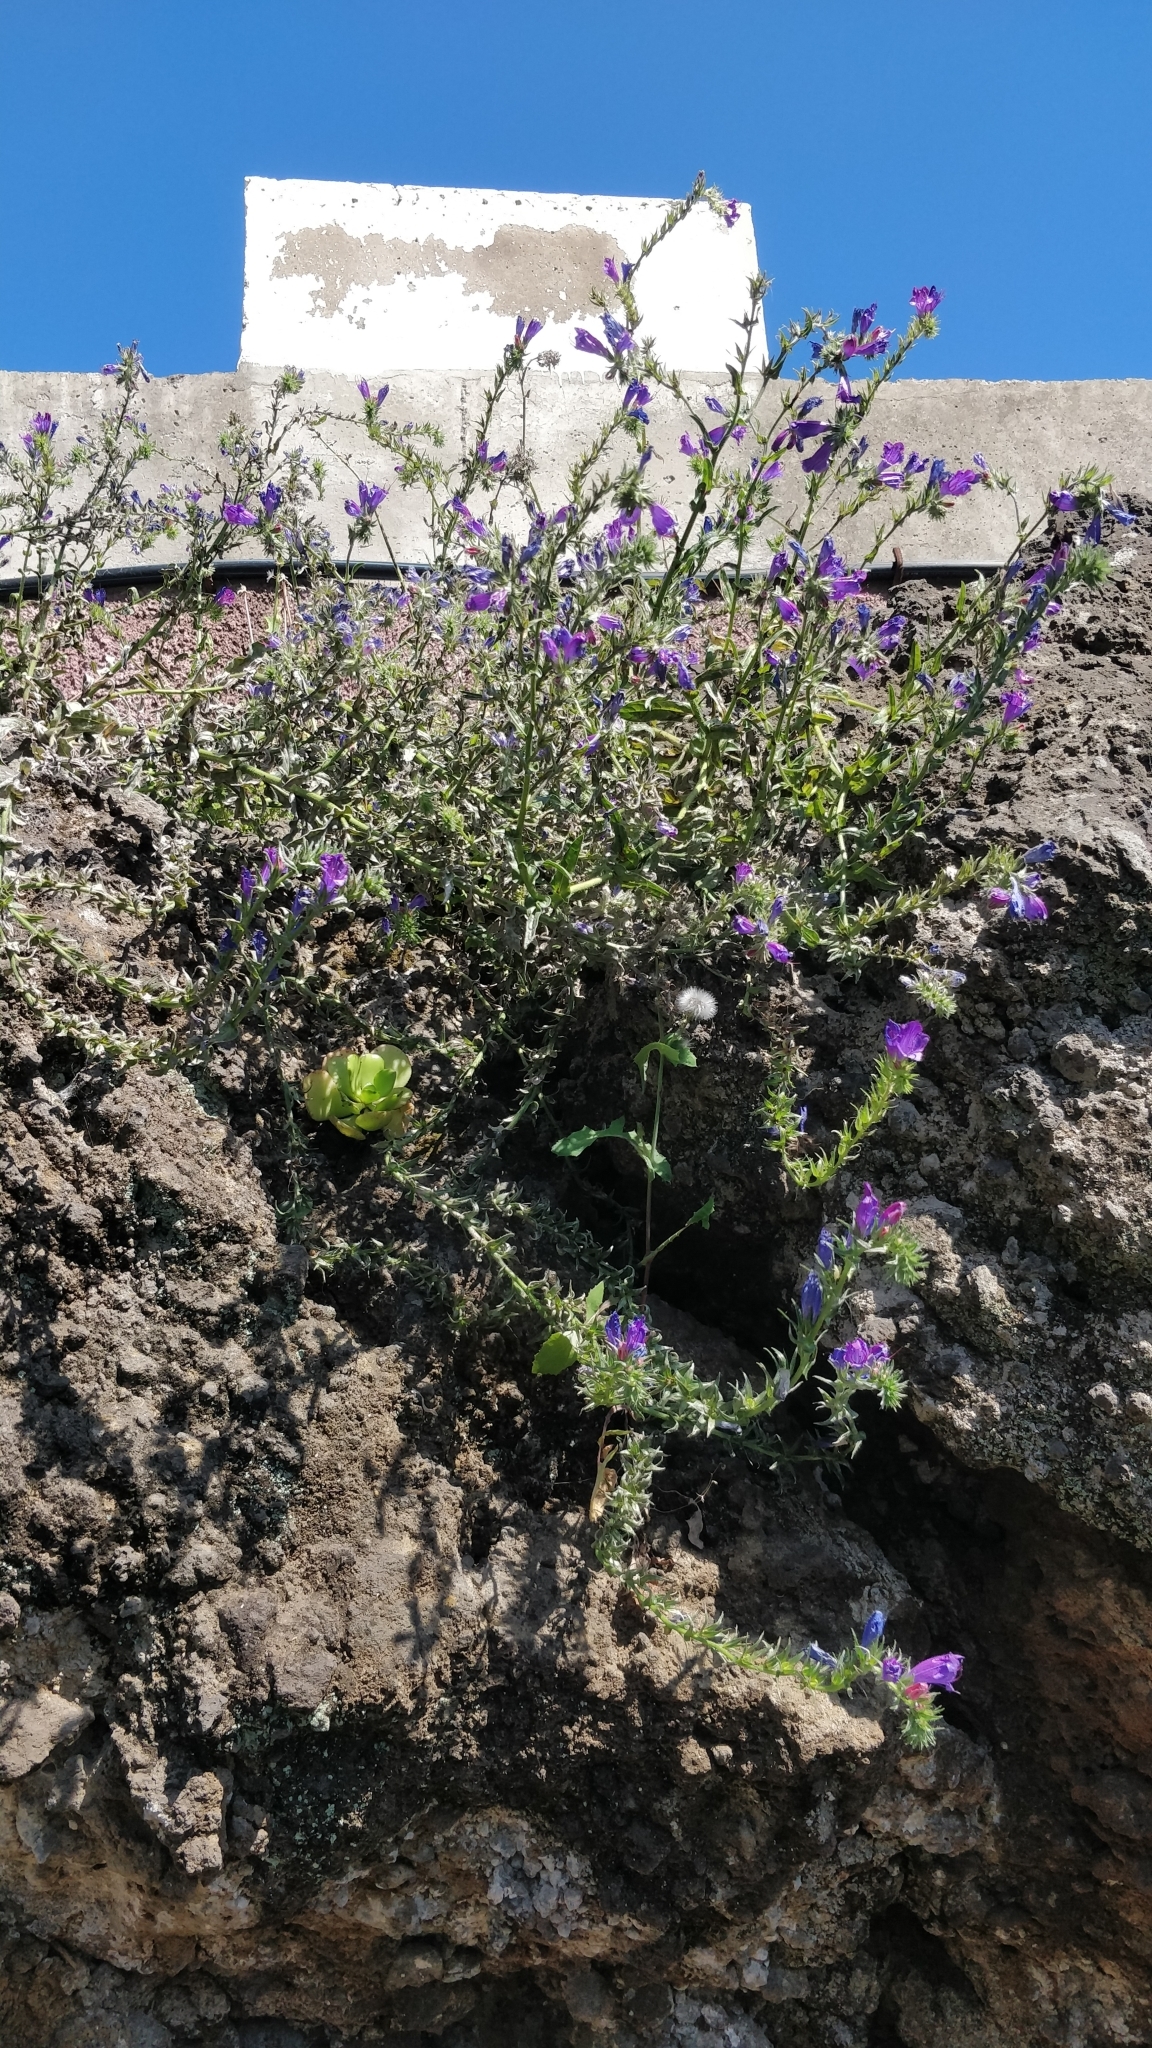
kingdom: Plantae
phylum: Tracheophyta
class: Magnoliopsida
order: Boraginales
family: Boraginaceae
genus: Echium
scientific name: Echium plantagineum
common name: Purple viper's-bugloss
